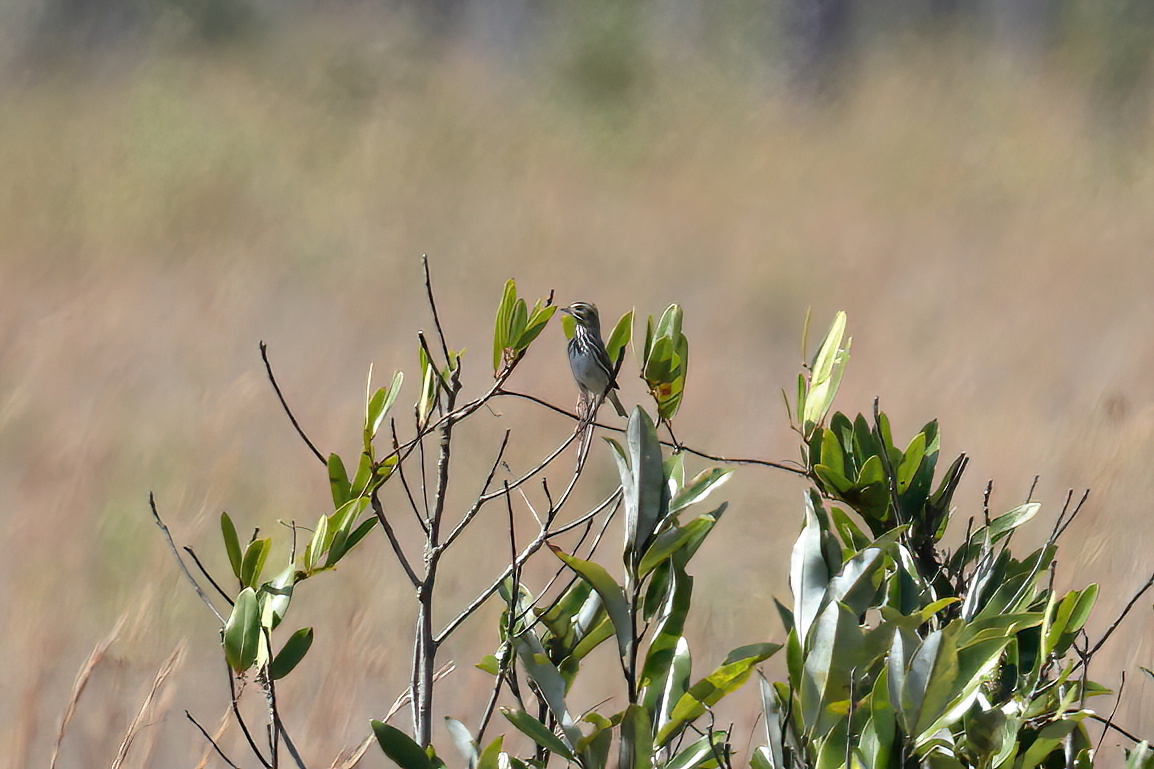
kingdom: Animalia
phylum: Chordata
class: Aves
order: Passeriformes
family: Passerellidae
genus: Passerculus
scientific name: Passerculus sandwichensis
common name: Savannah sparrow
